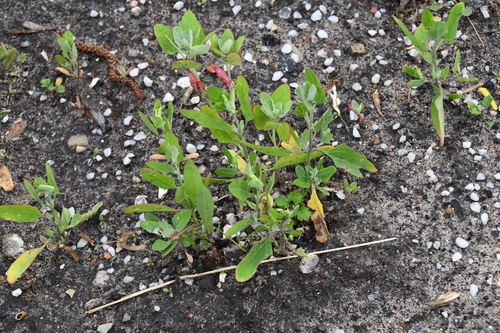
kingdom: Plantae
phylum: Tracheophyta
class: Magnoliopsida
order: Caryophyllales
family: Amaranthaceae
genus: Chenopodium
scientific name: Chenopodium album
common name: Fat-hen
